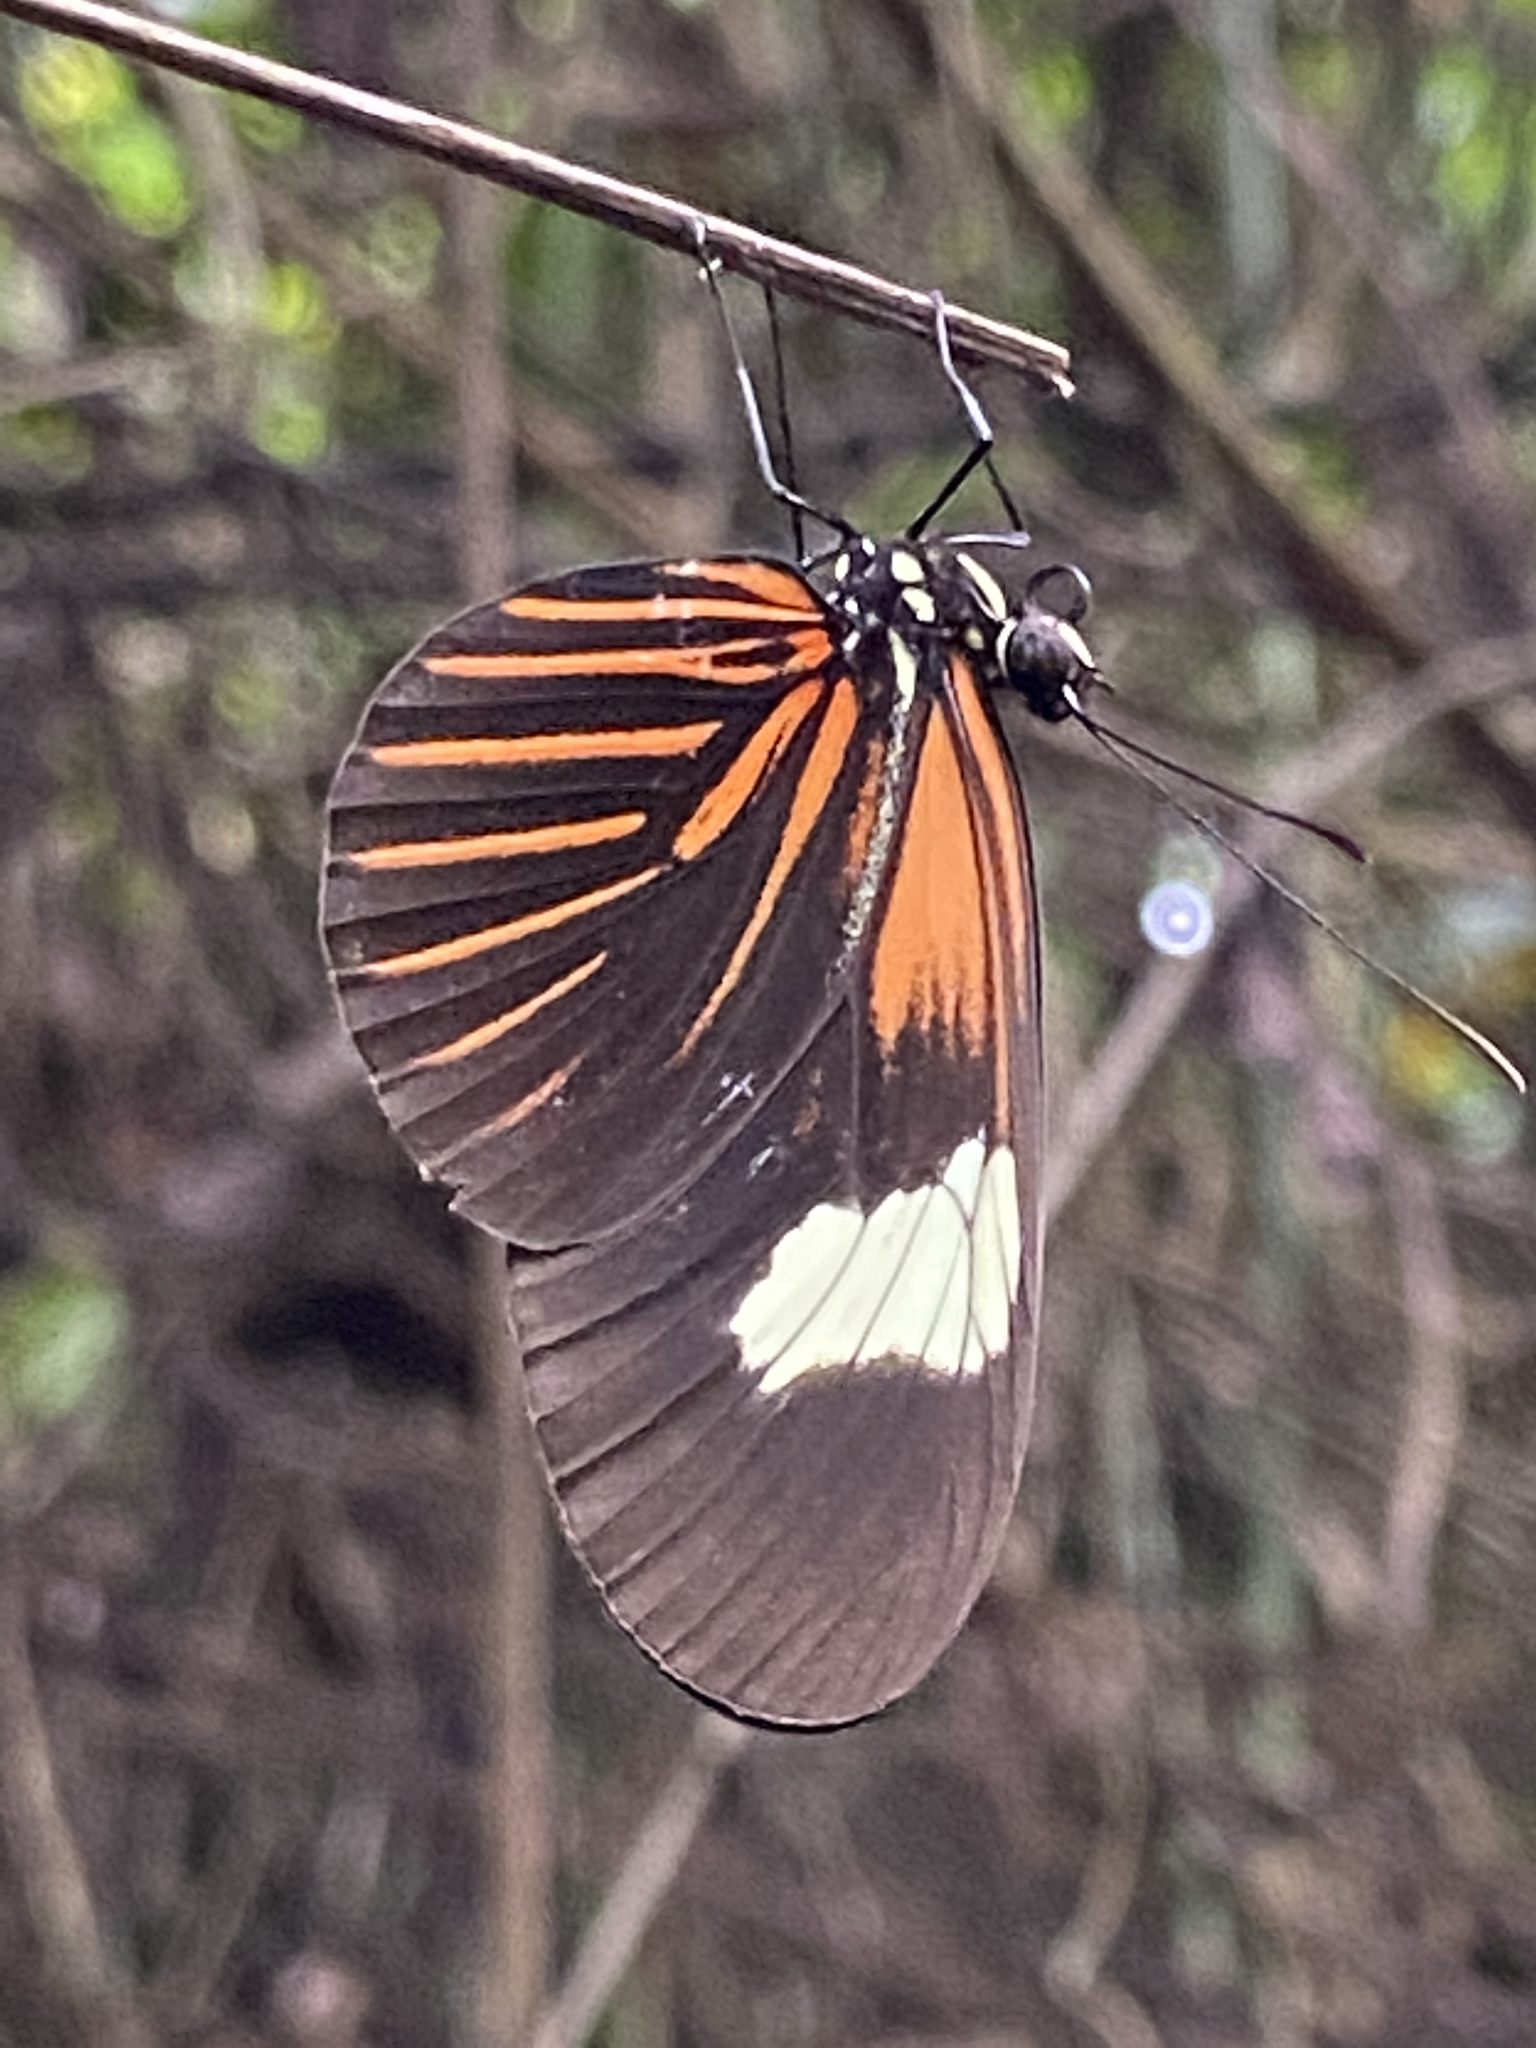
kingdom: Animalia
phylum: Arthropoda
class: Insecta
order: Lepidoptera
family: Nymphalidae
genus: Heliconius
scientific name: Heliconius erato
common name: Common patch longwing
